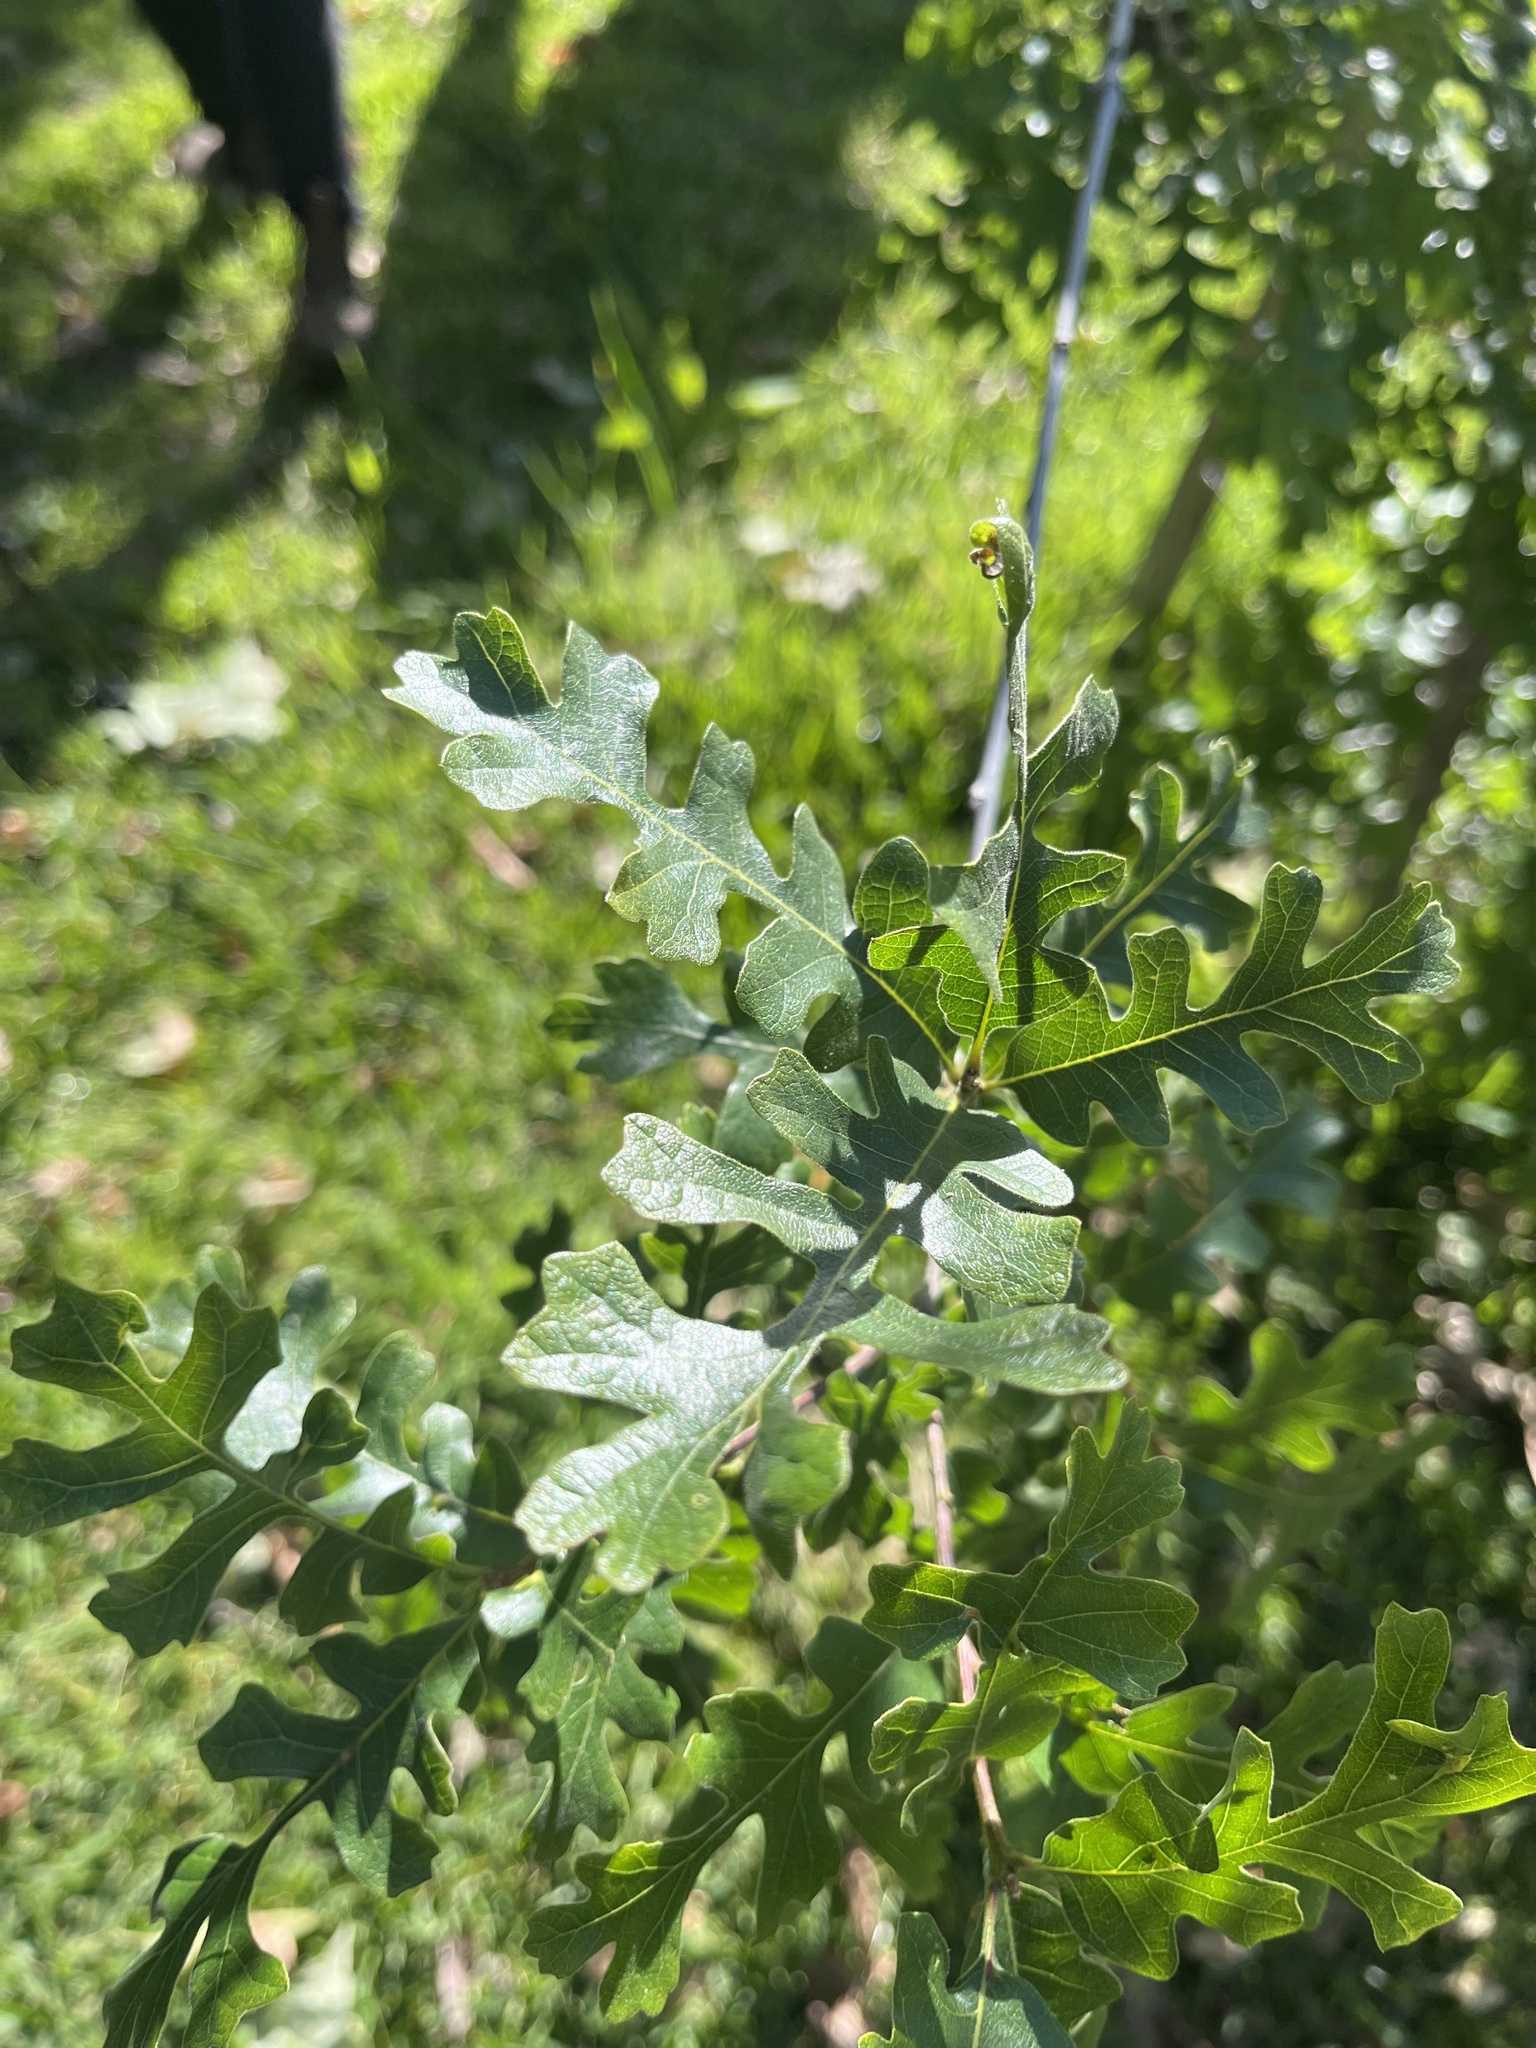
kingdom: Plantae
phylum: Tracheophyta
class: Magnoliopsida
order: Fagales
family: Fagaceae
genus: Quercus
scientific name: Quercus lobata
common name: Valley oak
